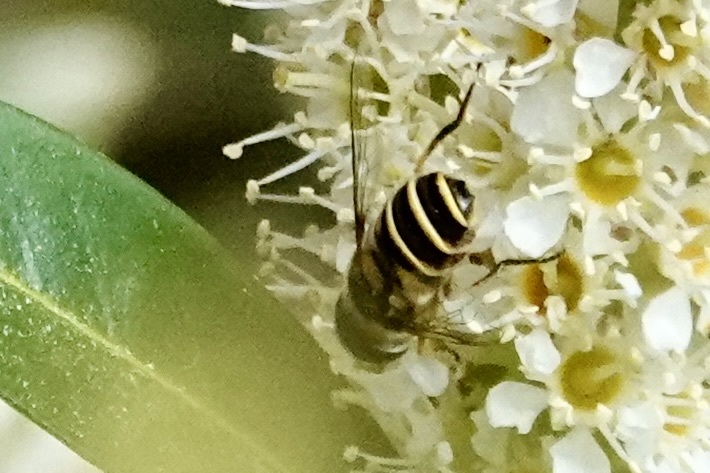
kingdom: Animalia
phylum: Arthropoda
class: Insecta
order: Diptera
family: Syrphidae
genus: Eristalis
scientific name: Eristalis transversa
